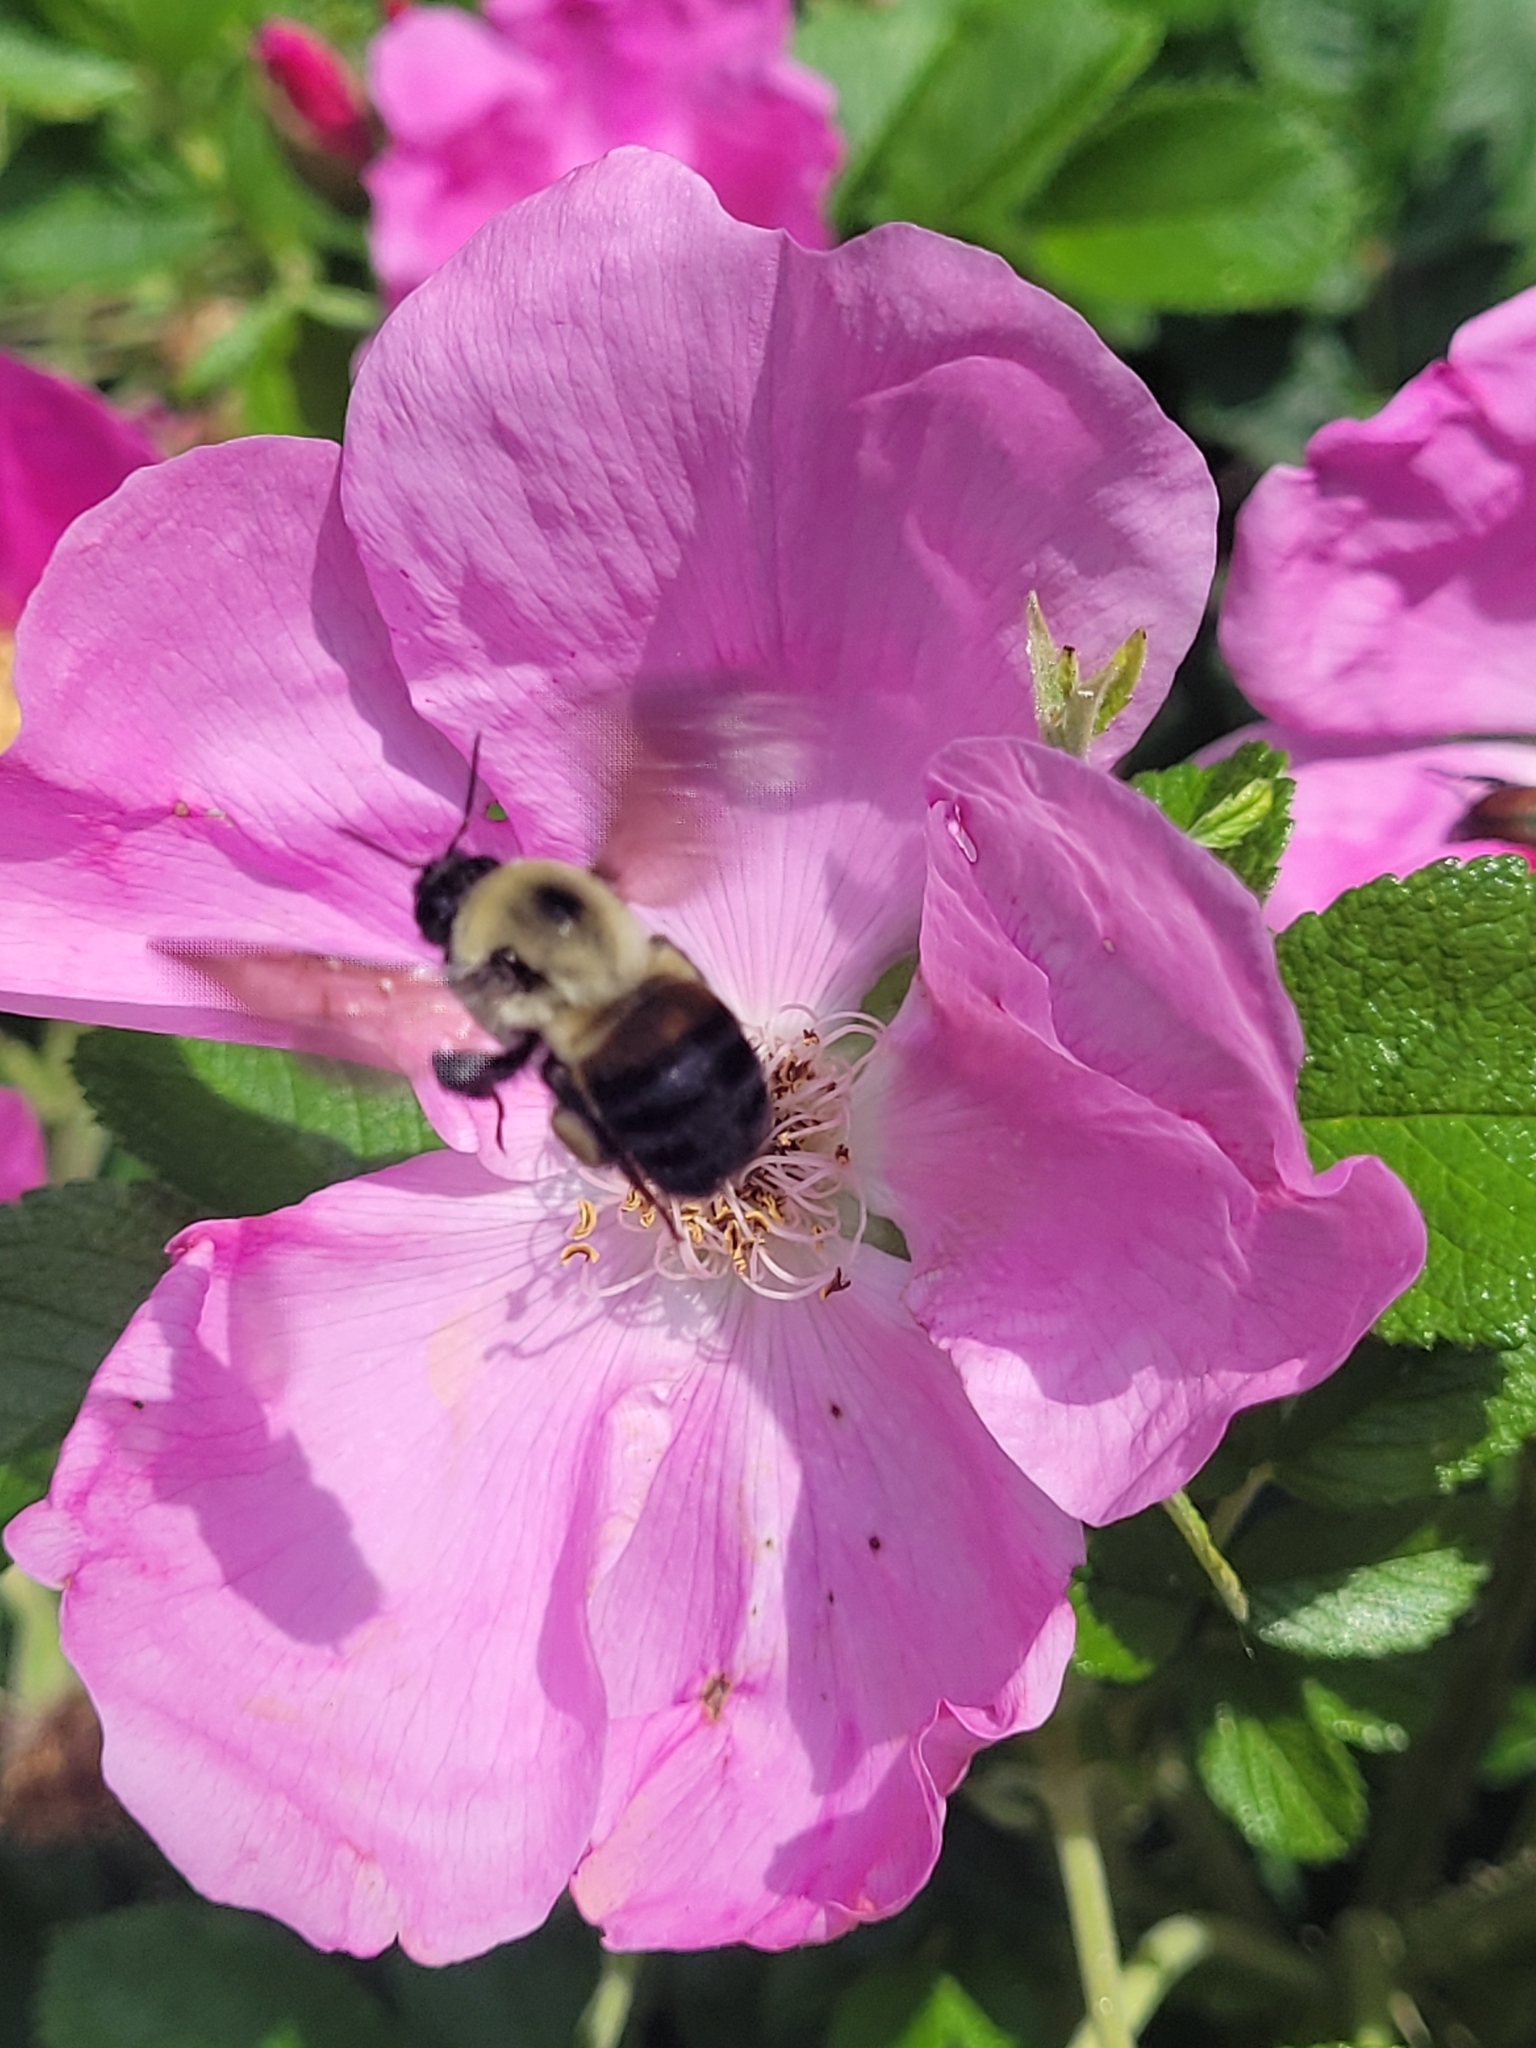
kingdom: Animalia
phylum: Arthropoda
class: Insecta
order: Hymenoptera
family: Apidae
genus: Bombus
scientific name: Bombus griseocollis
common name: Brown-belted bumble bee
